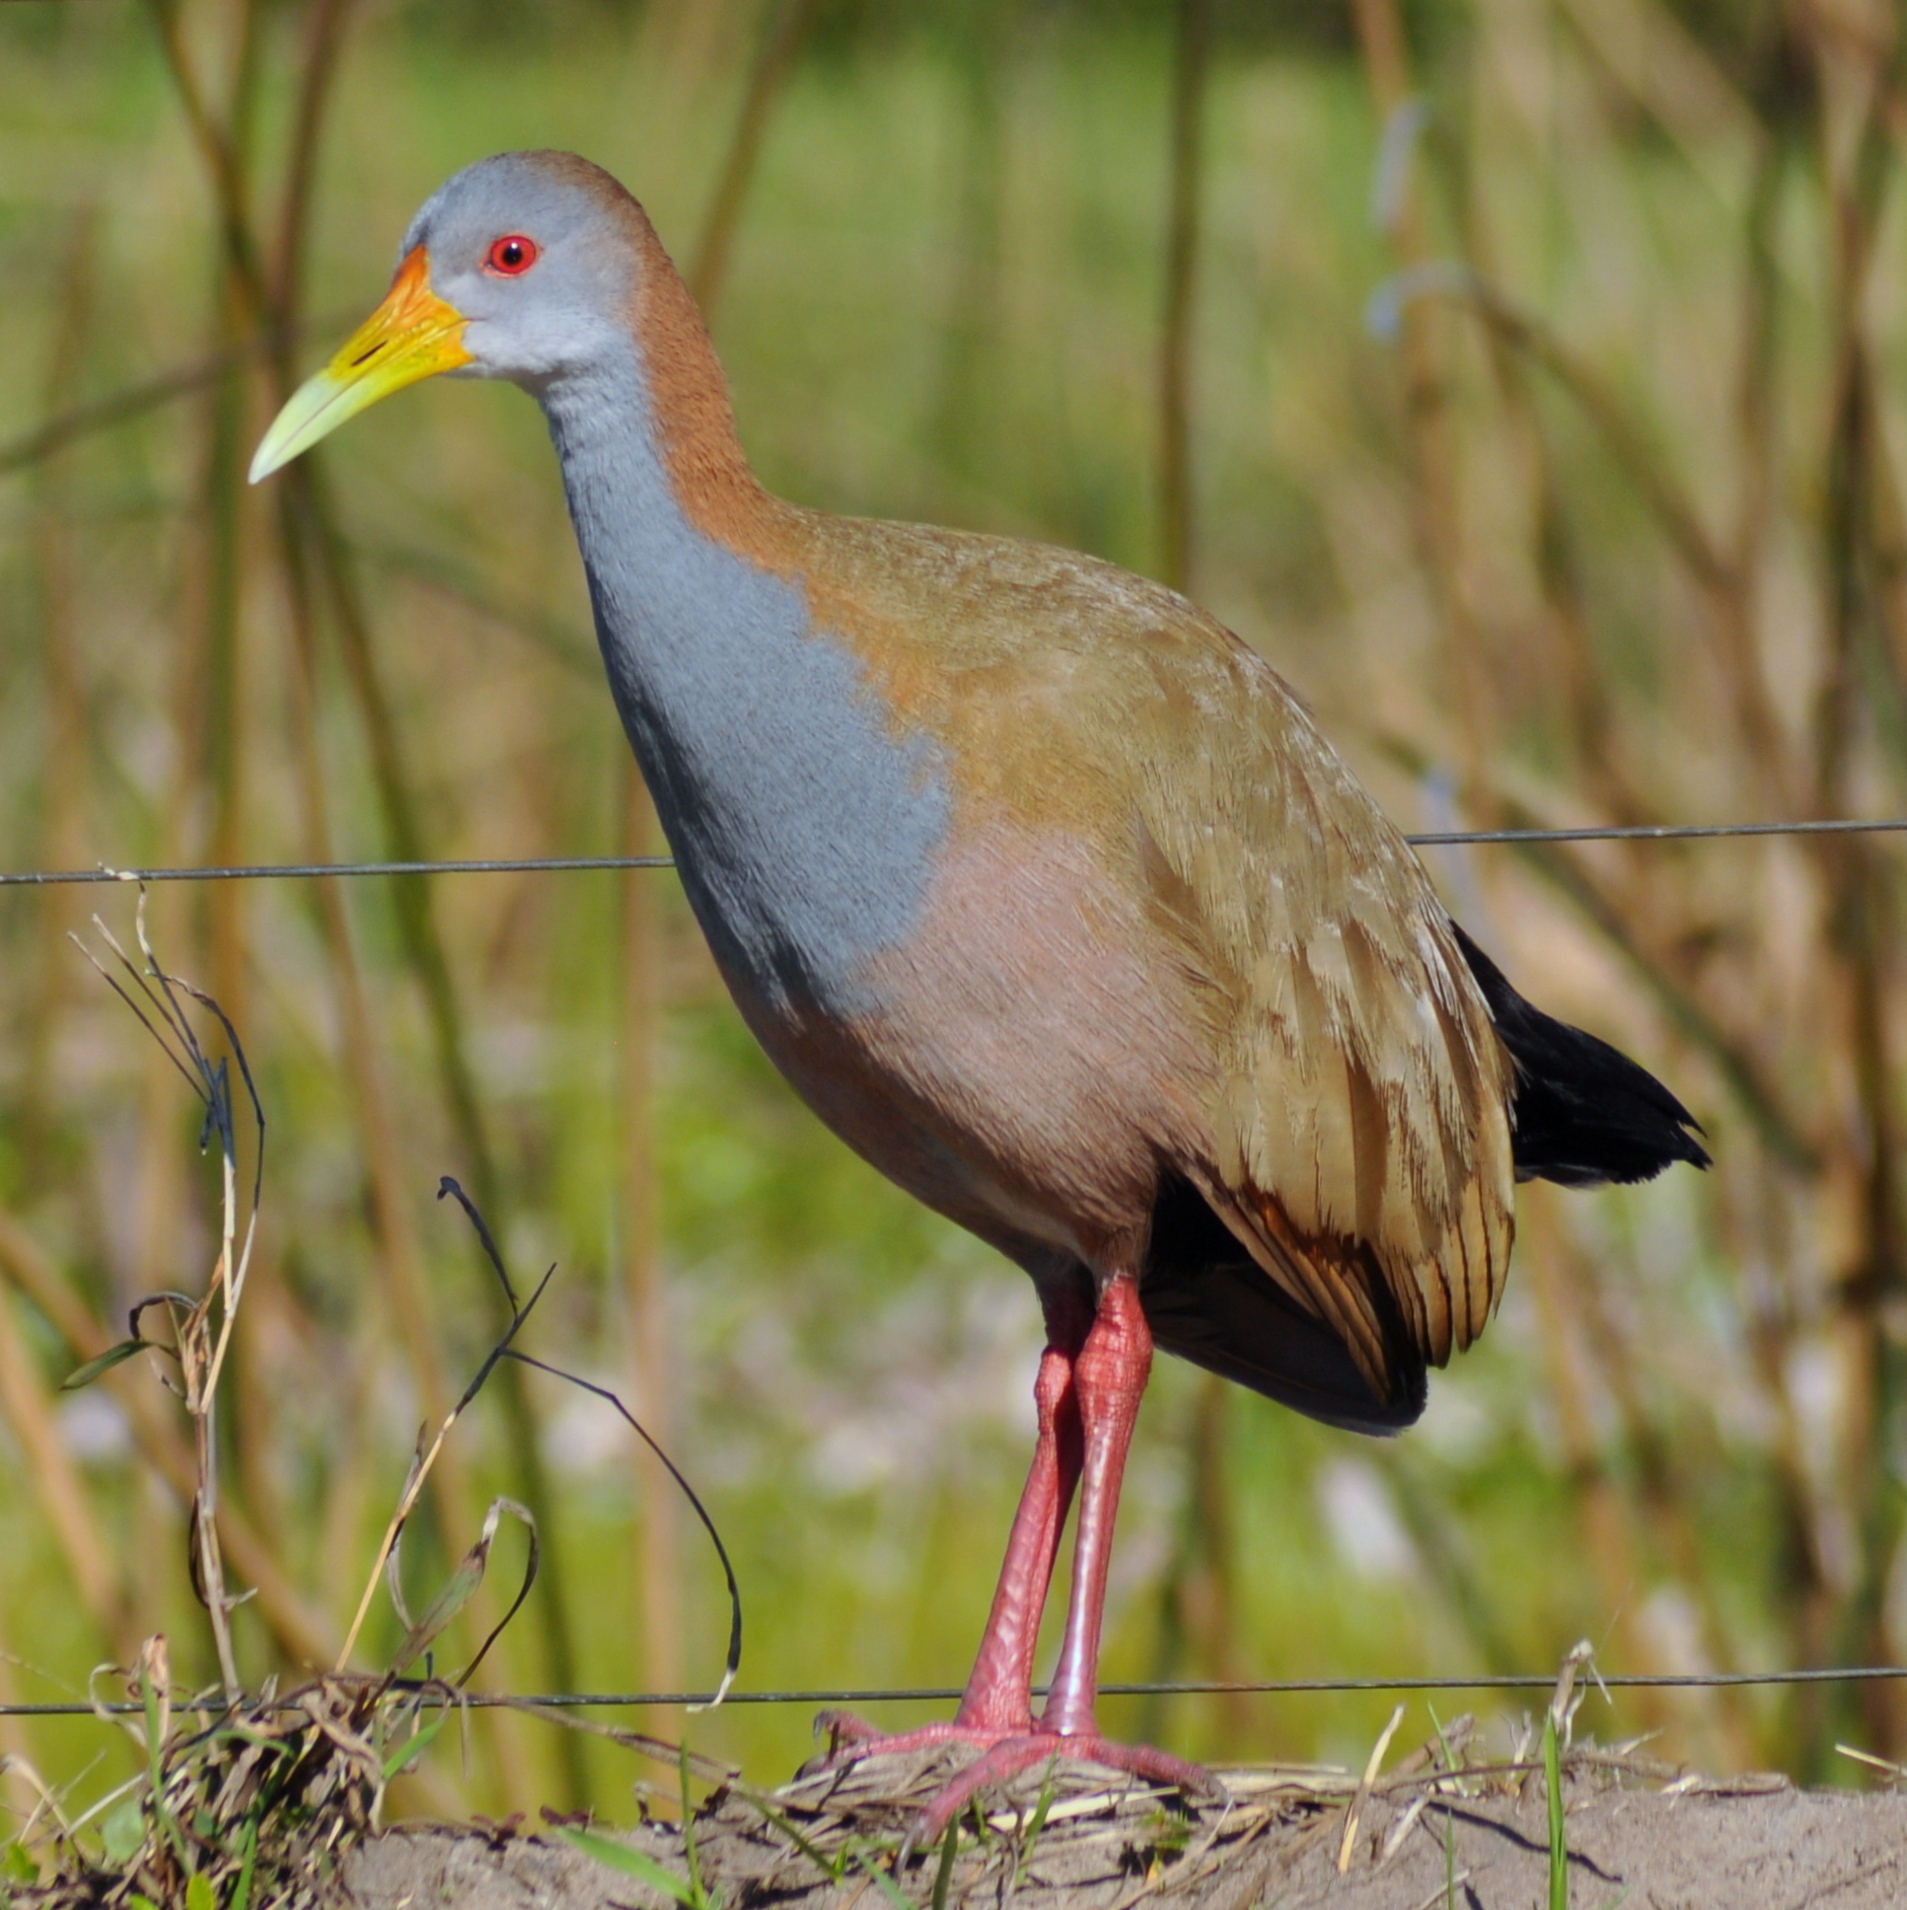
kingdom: Animalia
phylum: Chordata
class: Aves
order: Gruiformes
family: Rallidae
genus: Aramides
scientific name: Aramides ypecaha
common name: Giant wood rail
